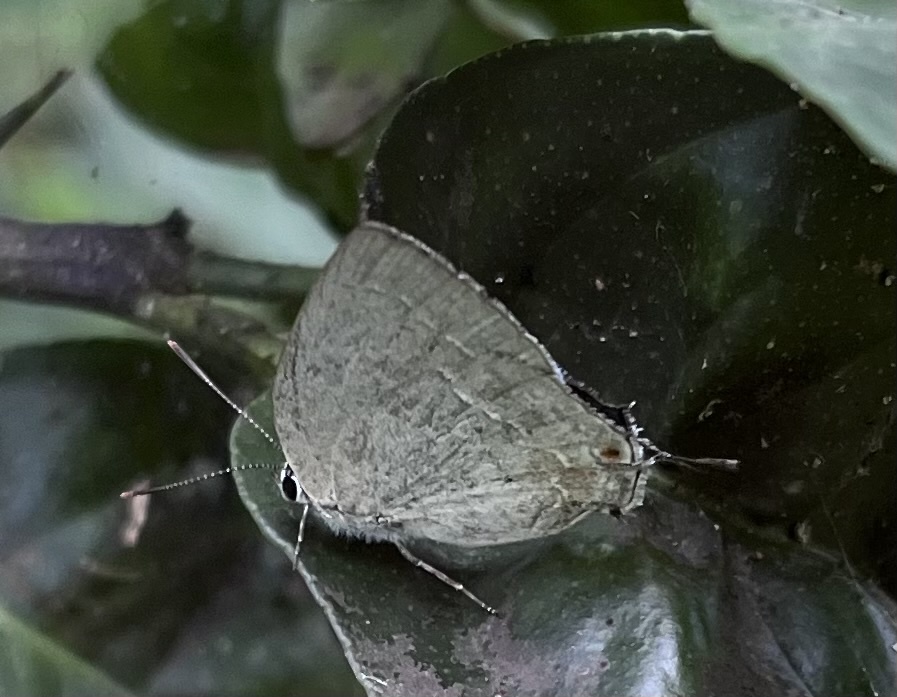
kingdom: Animalia
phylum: Arthropoda
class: Insecta
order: Lepidoptera
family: Lycaenidae
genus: Strephonota
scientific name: Strephonota tephraeus
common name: Pearly-gray hairstreak
